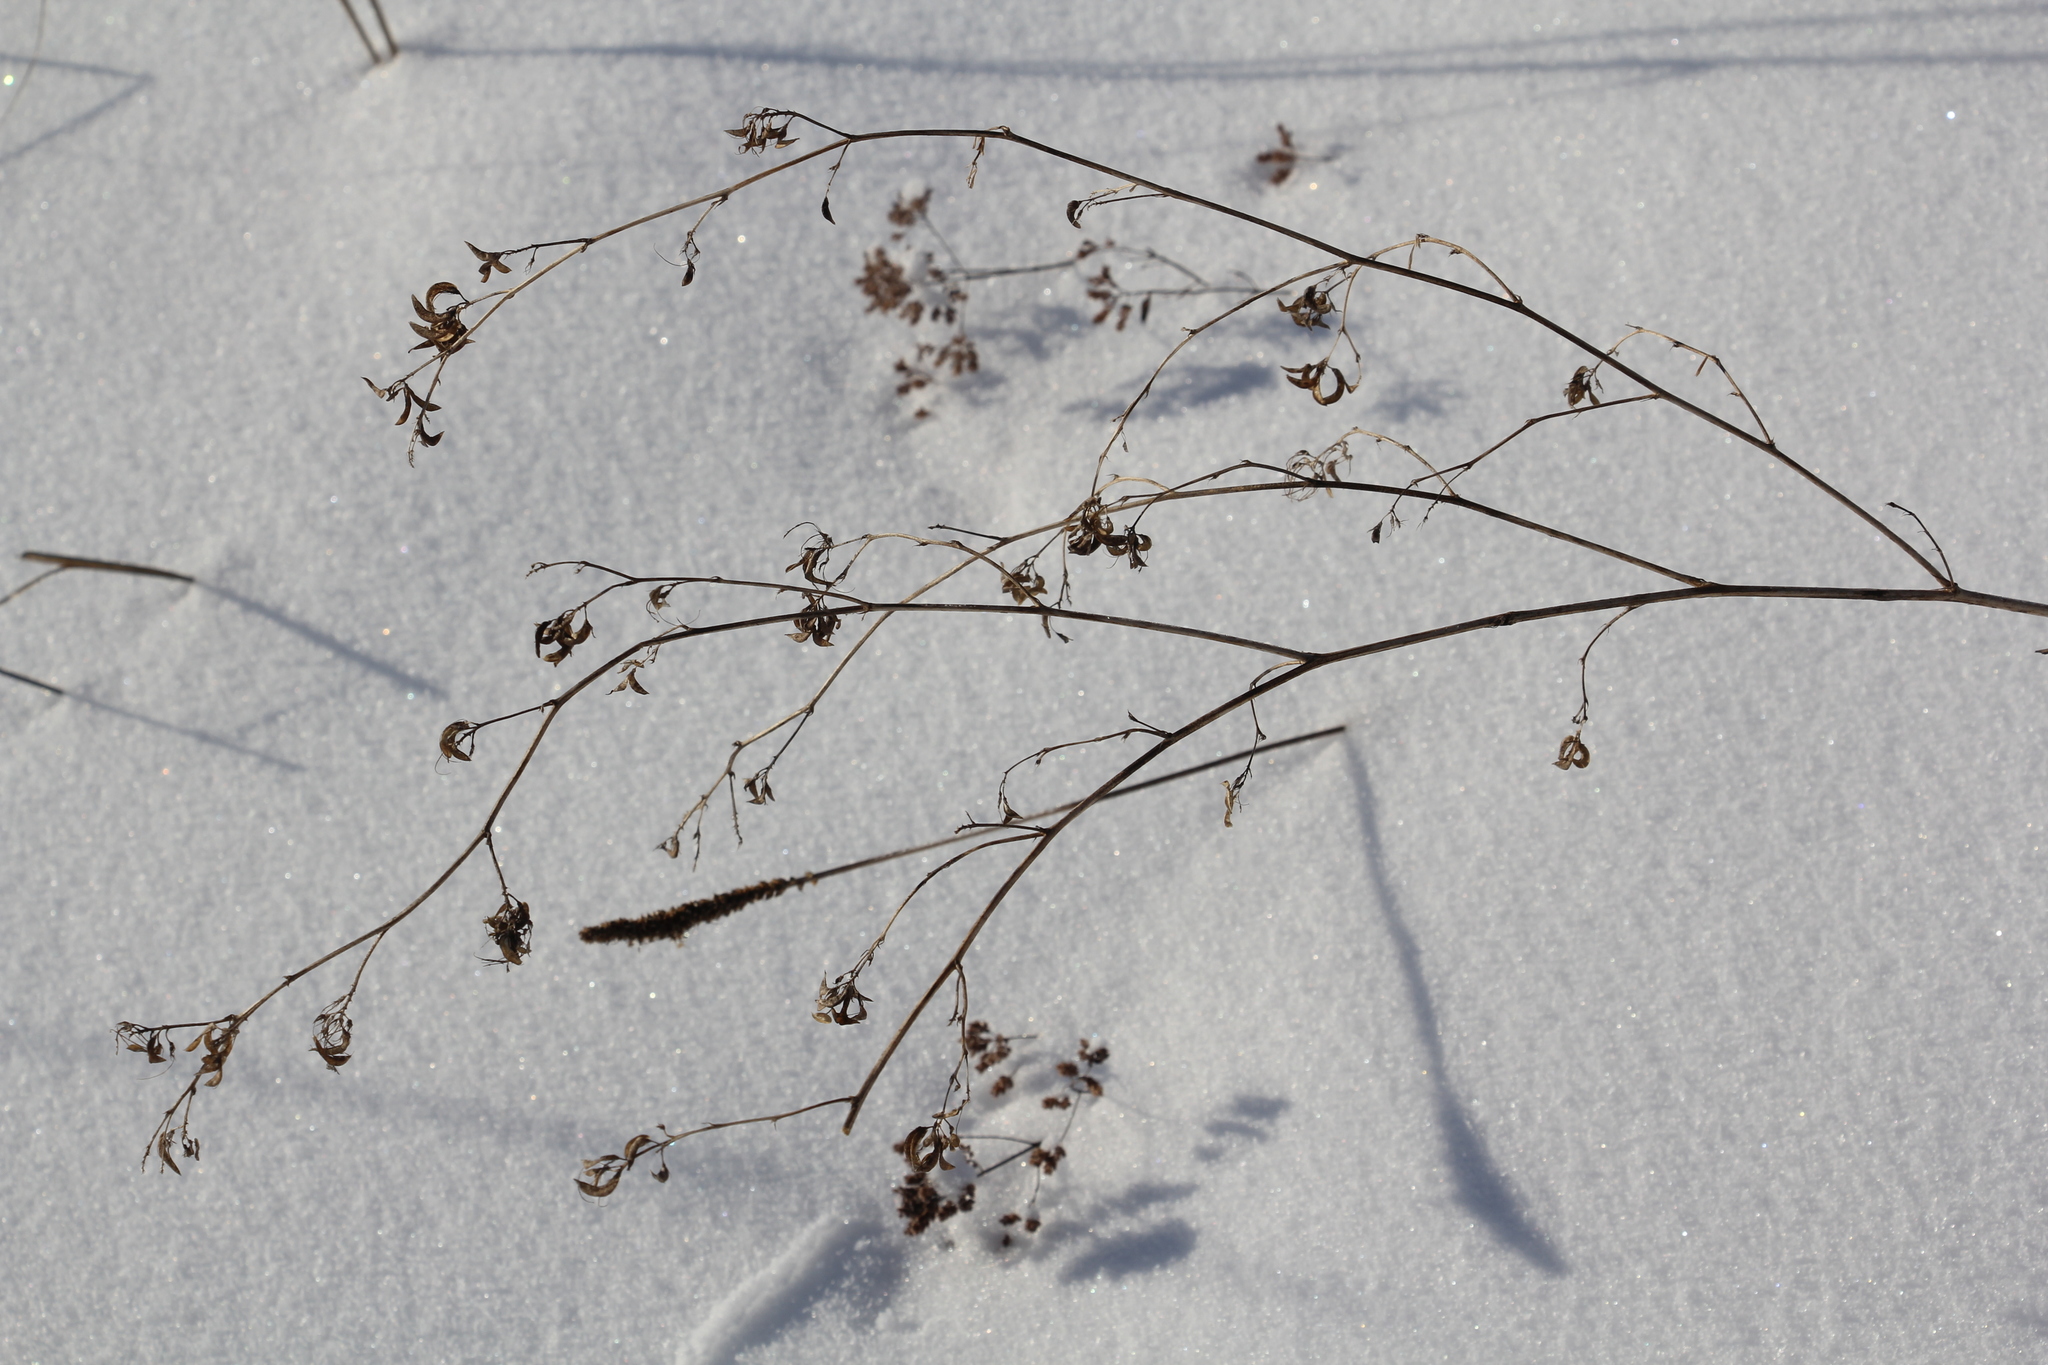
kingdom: Plantae
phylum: Tracheophyta
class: Magnoliopsida
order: Fabales
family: Fabaceae
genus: Medicago
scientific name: Medicago falcata
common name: Sickle medick
